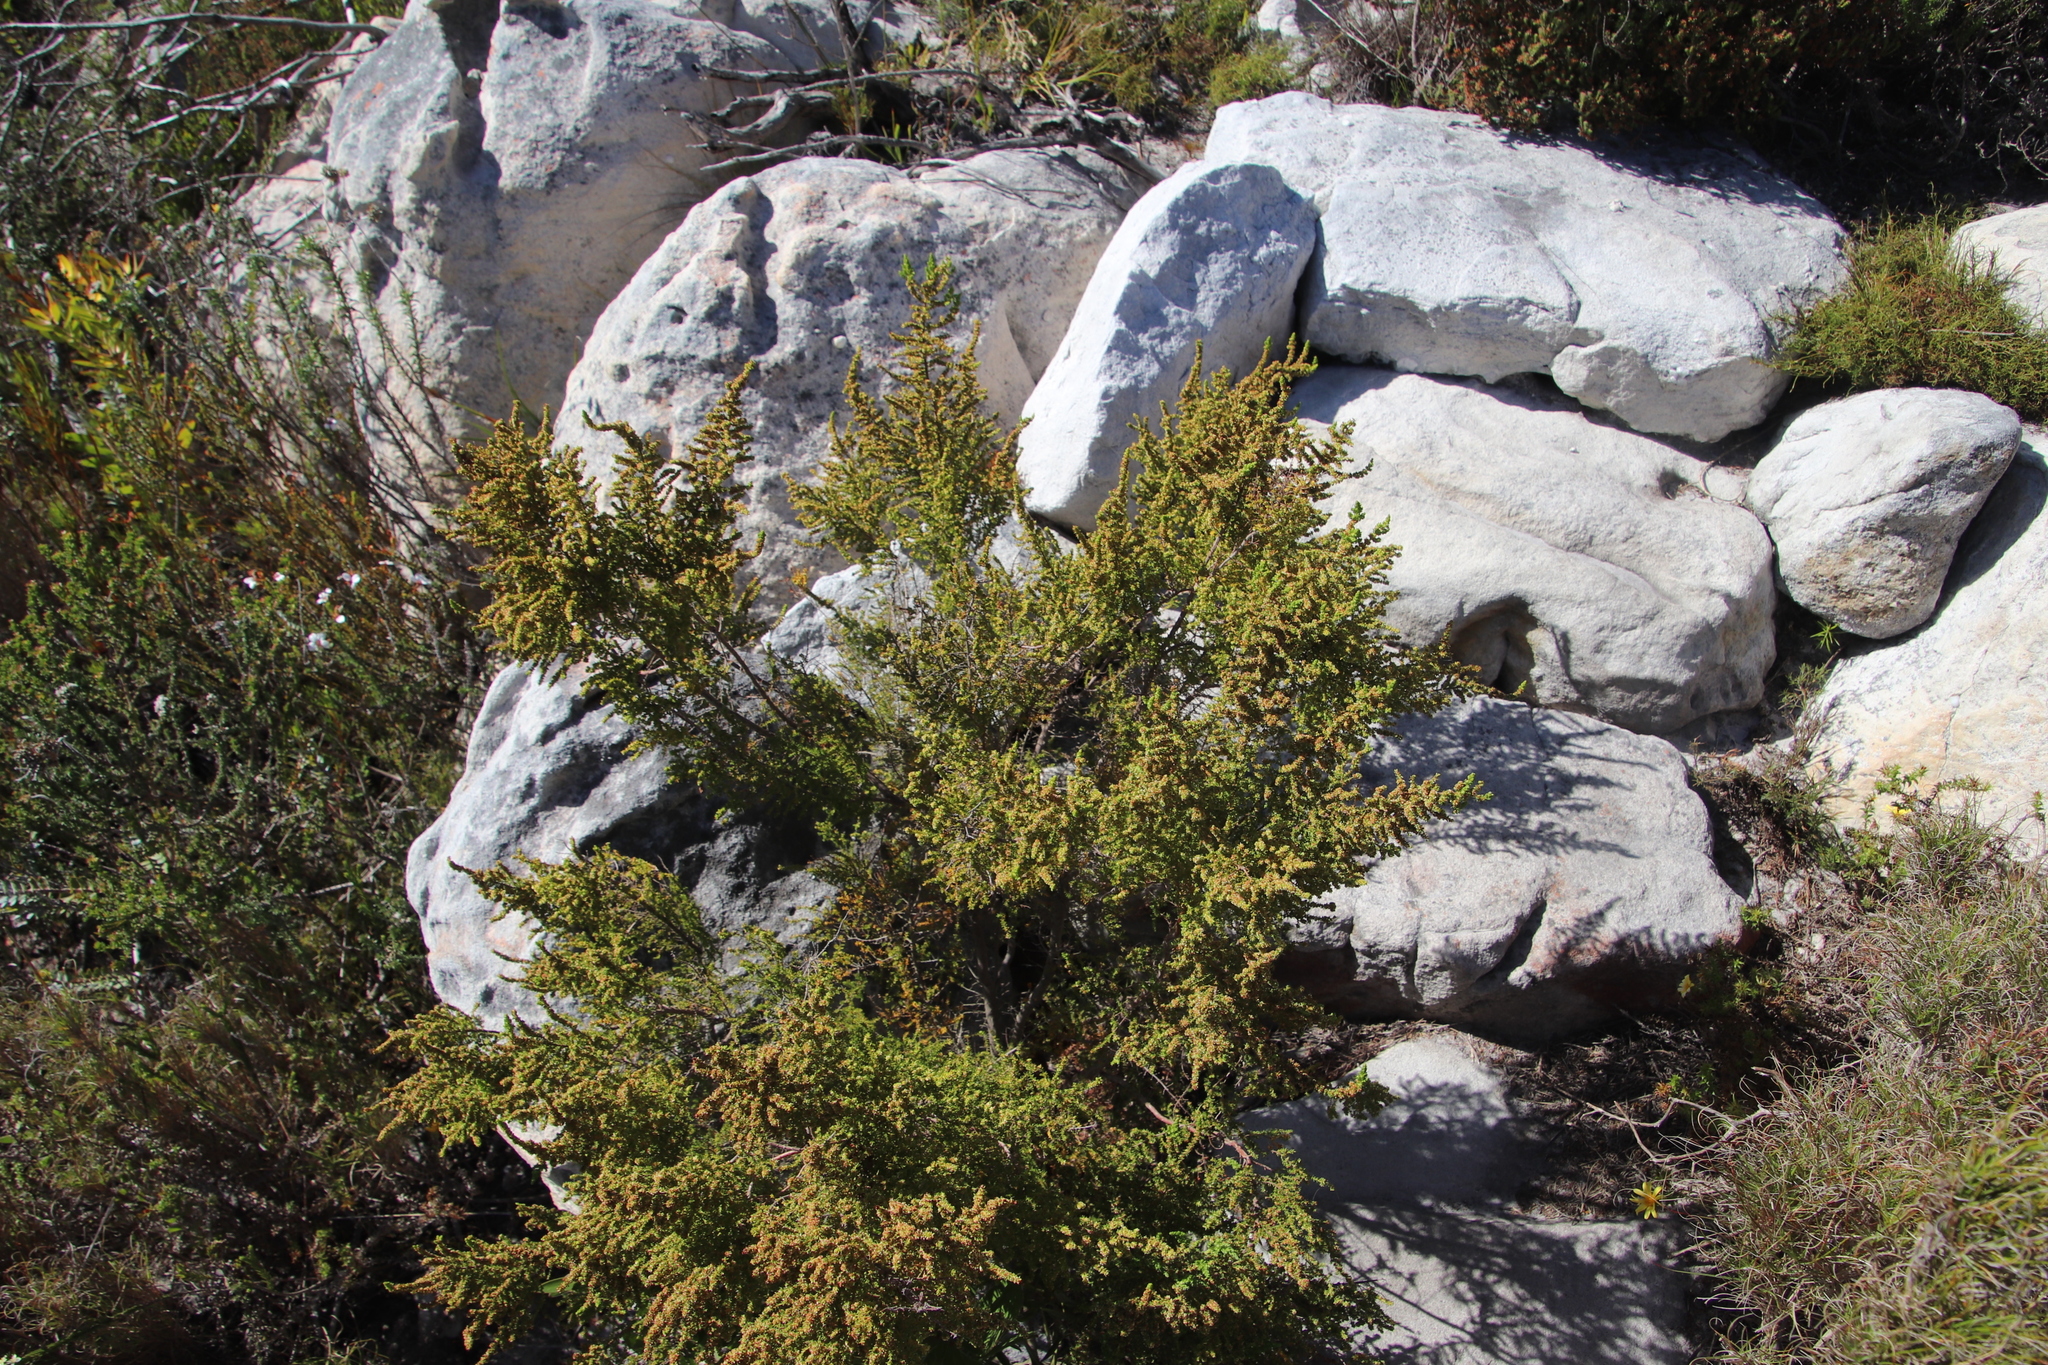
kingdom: Plantae
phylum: Tracheophyta
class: Magnoliopsida
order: Ericales
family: Ericaceae
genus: Erica
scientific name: Erica muscosa
